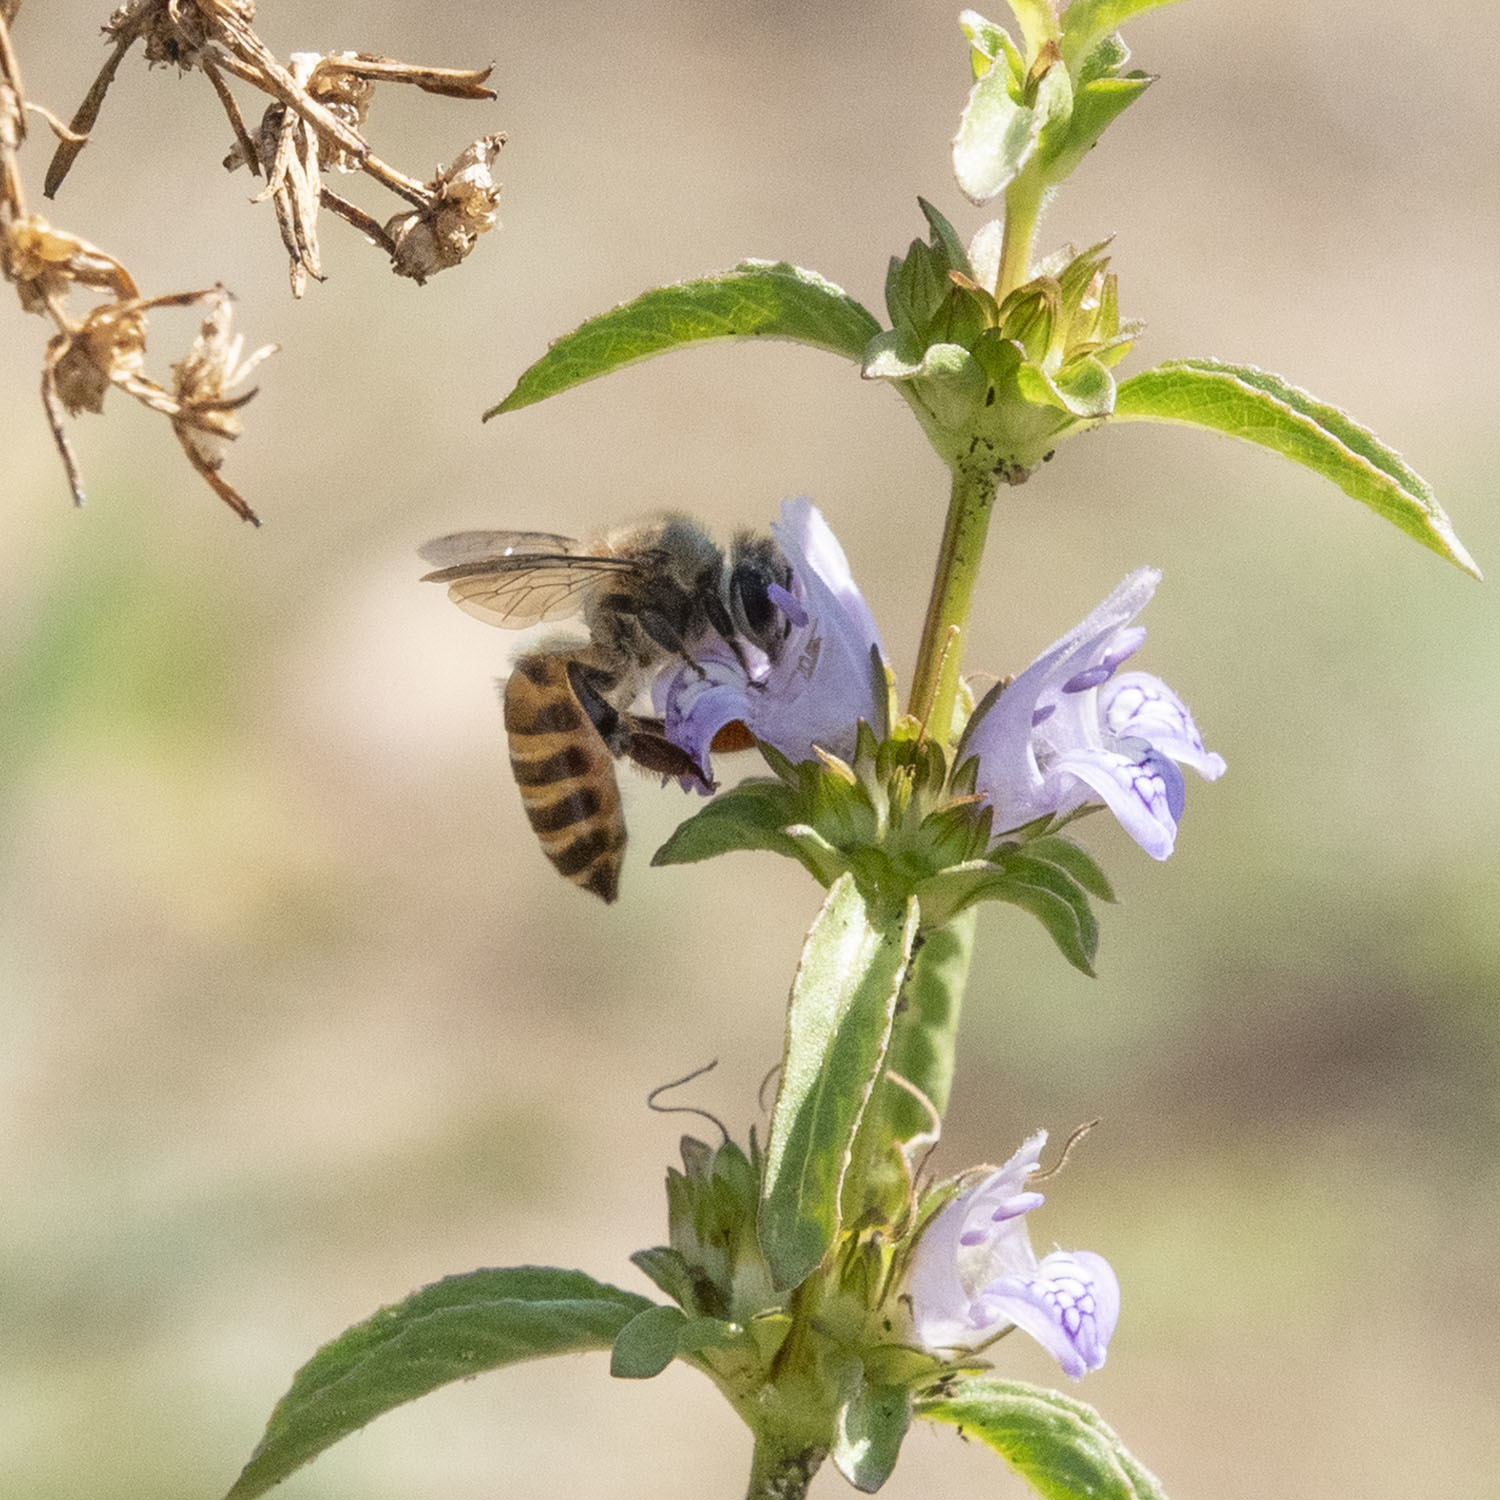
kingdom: Animalia
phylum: Arthropoda
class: Insecta
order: Hymenoptera
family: Apidae
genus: Apis
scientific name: Apis cerana
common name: Honey bee
